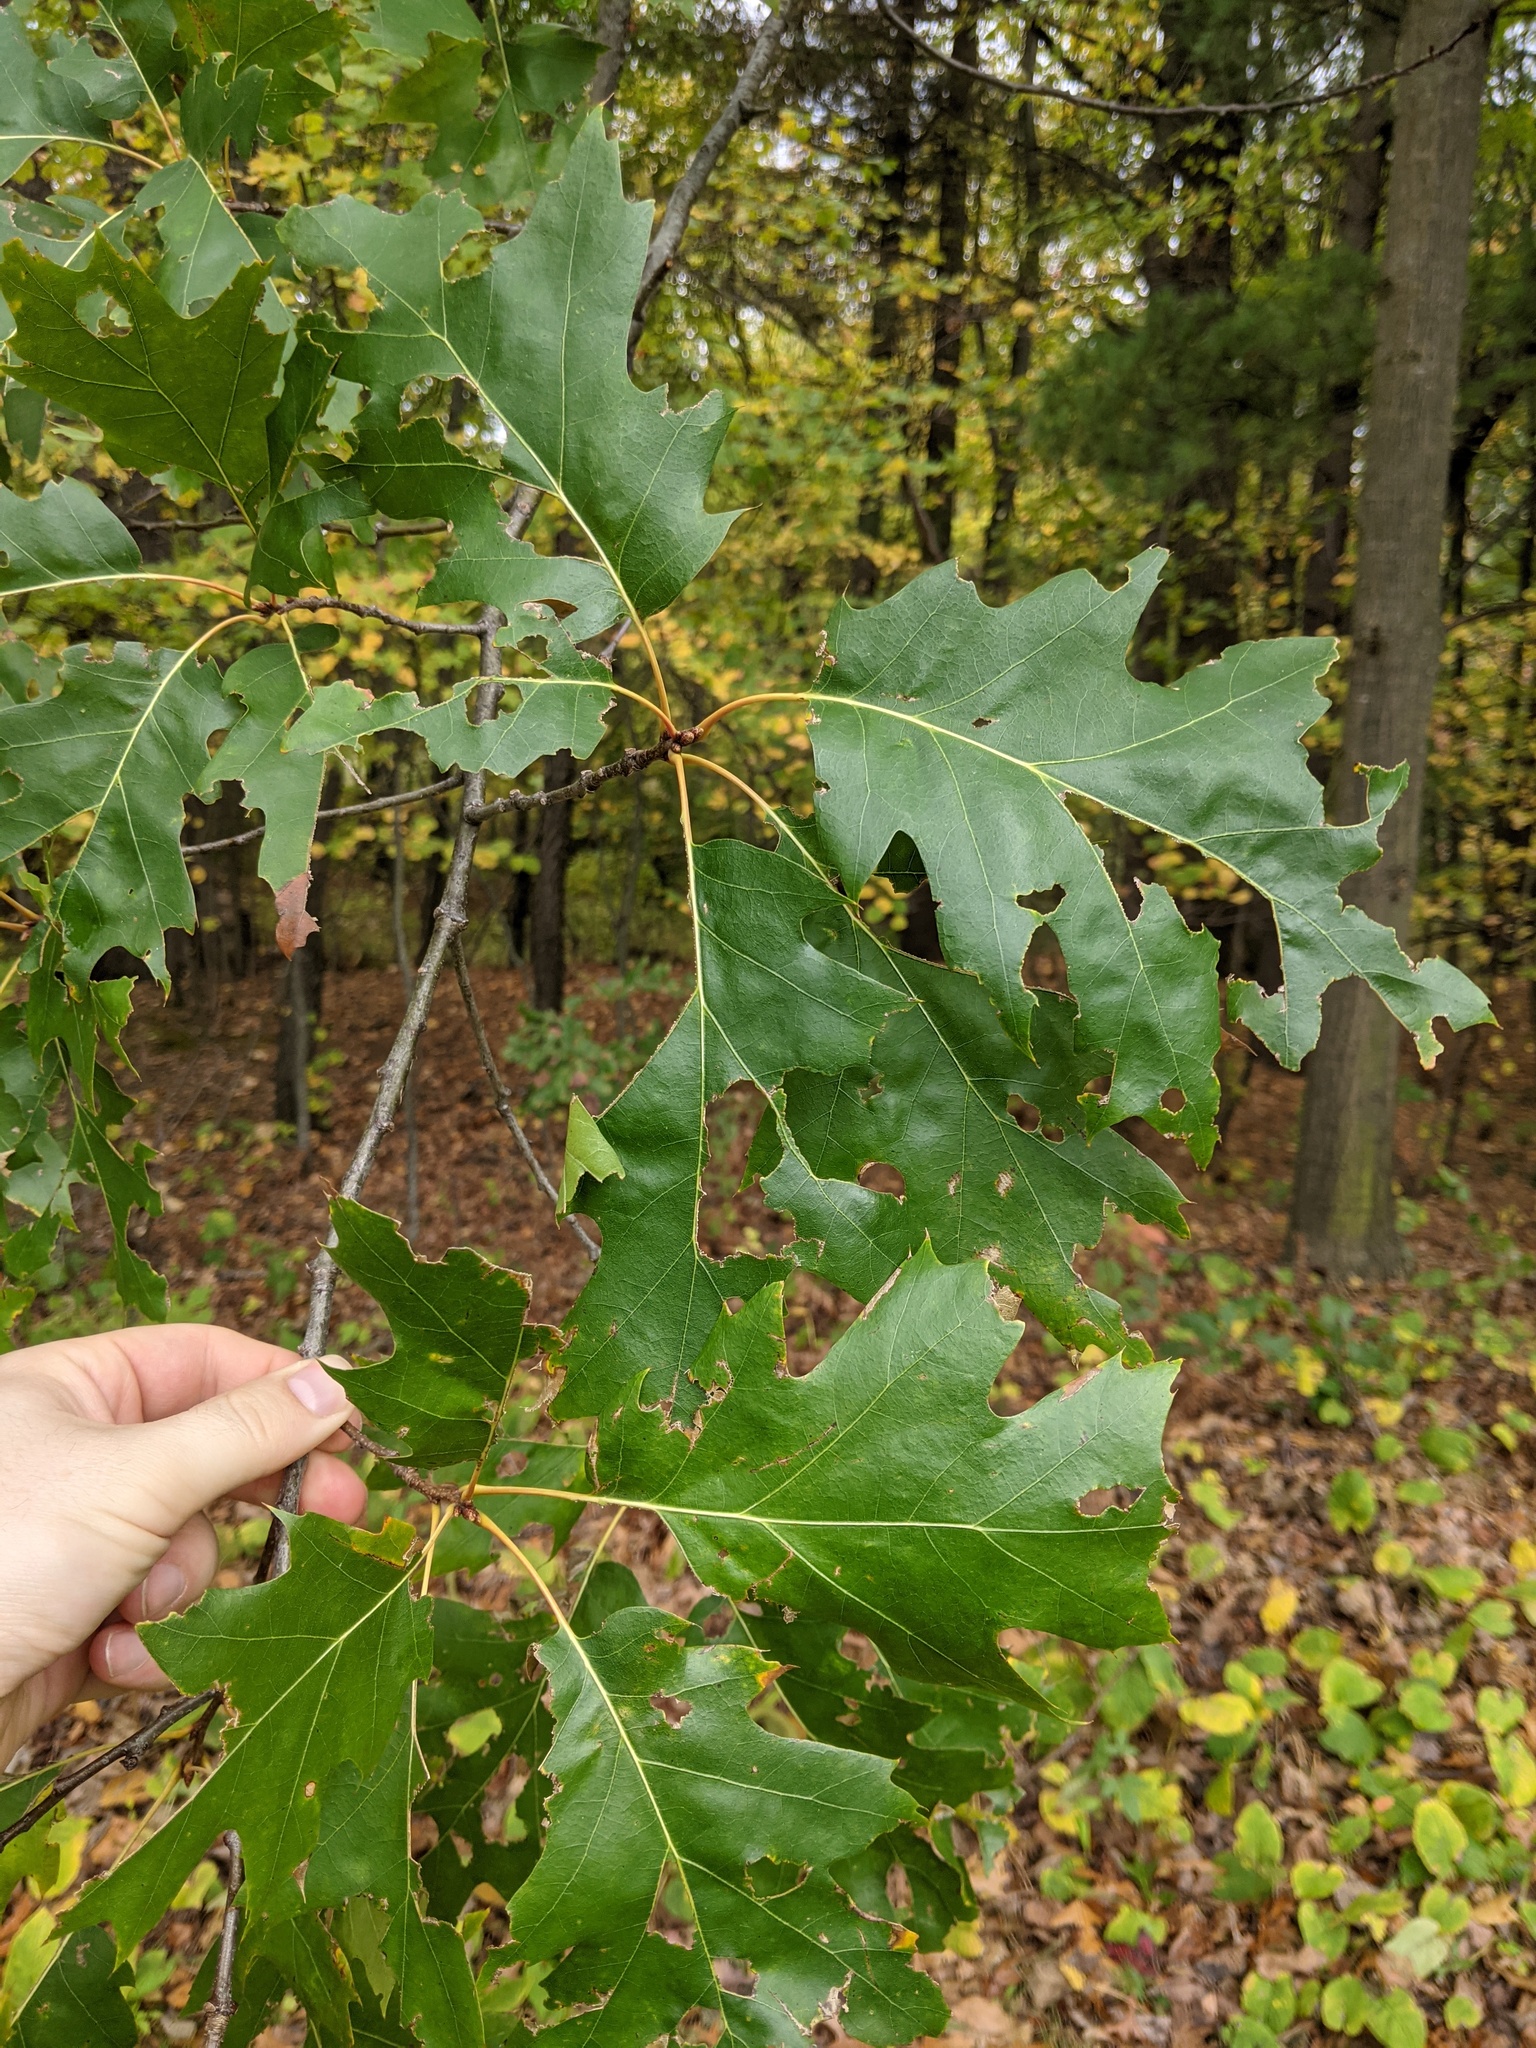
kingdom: Plantae
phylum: Tracheophyta
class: Magnoliopsida
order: Fagales
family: Fagaceae
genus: Quercus
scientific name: Quercus rubra
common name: Red oak
